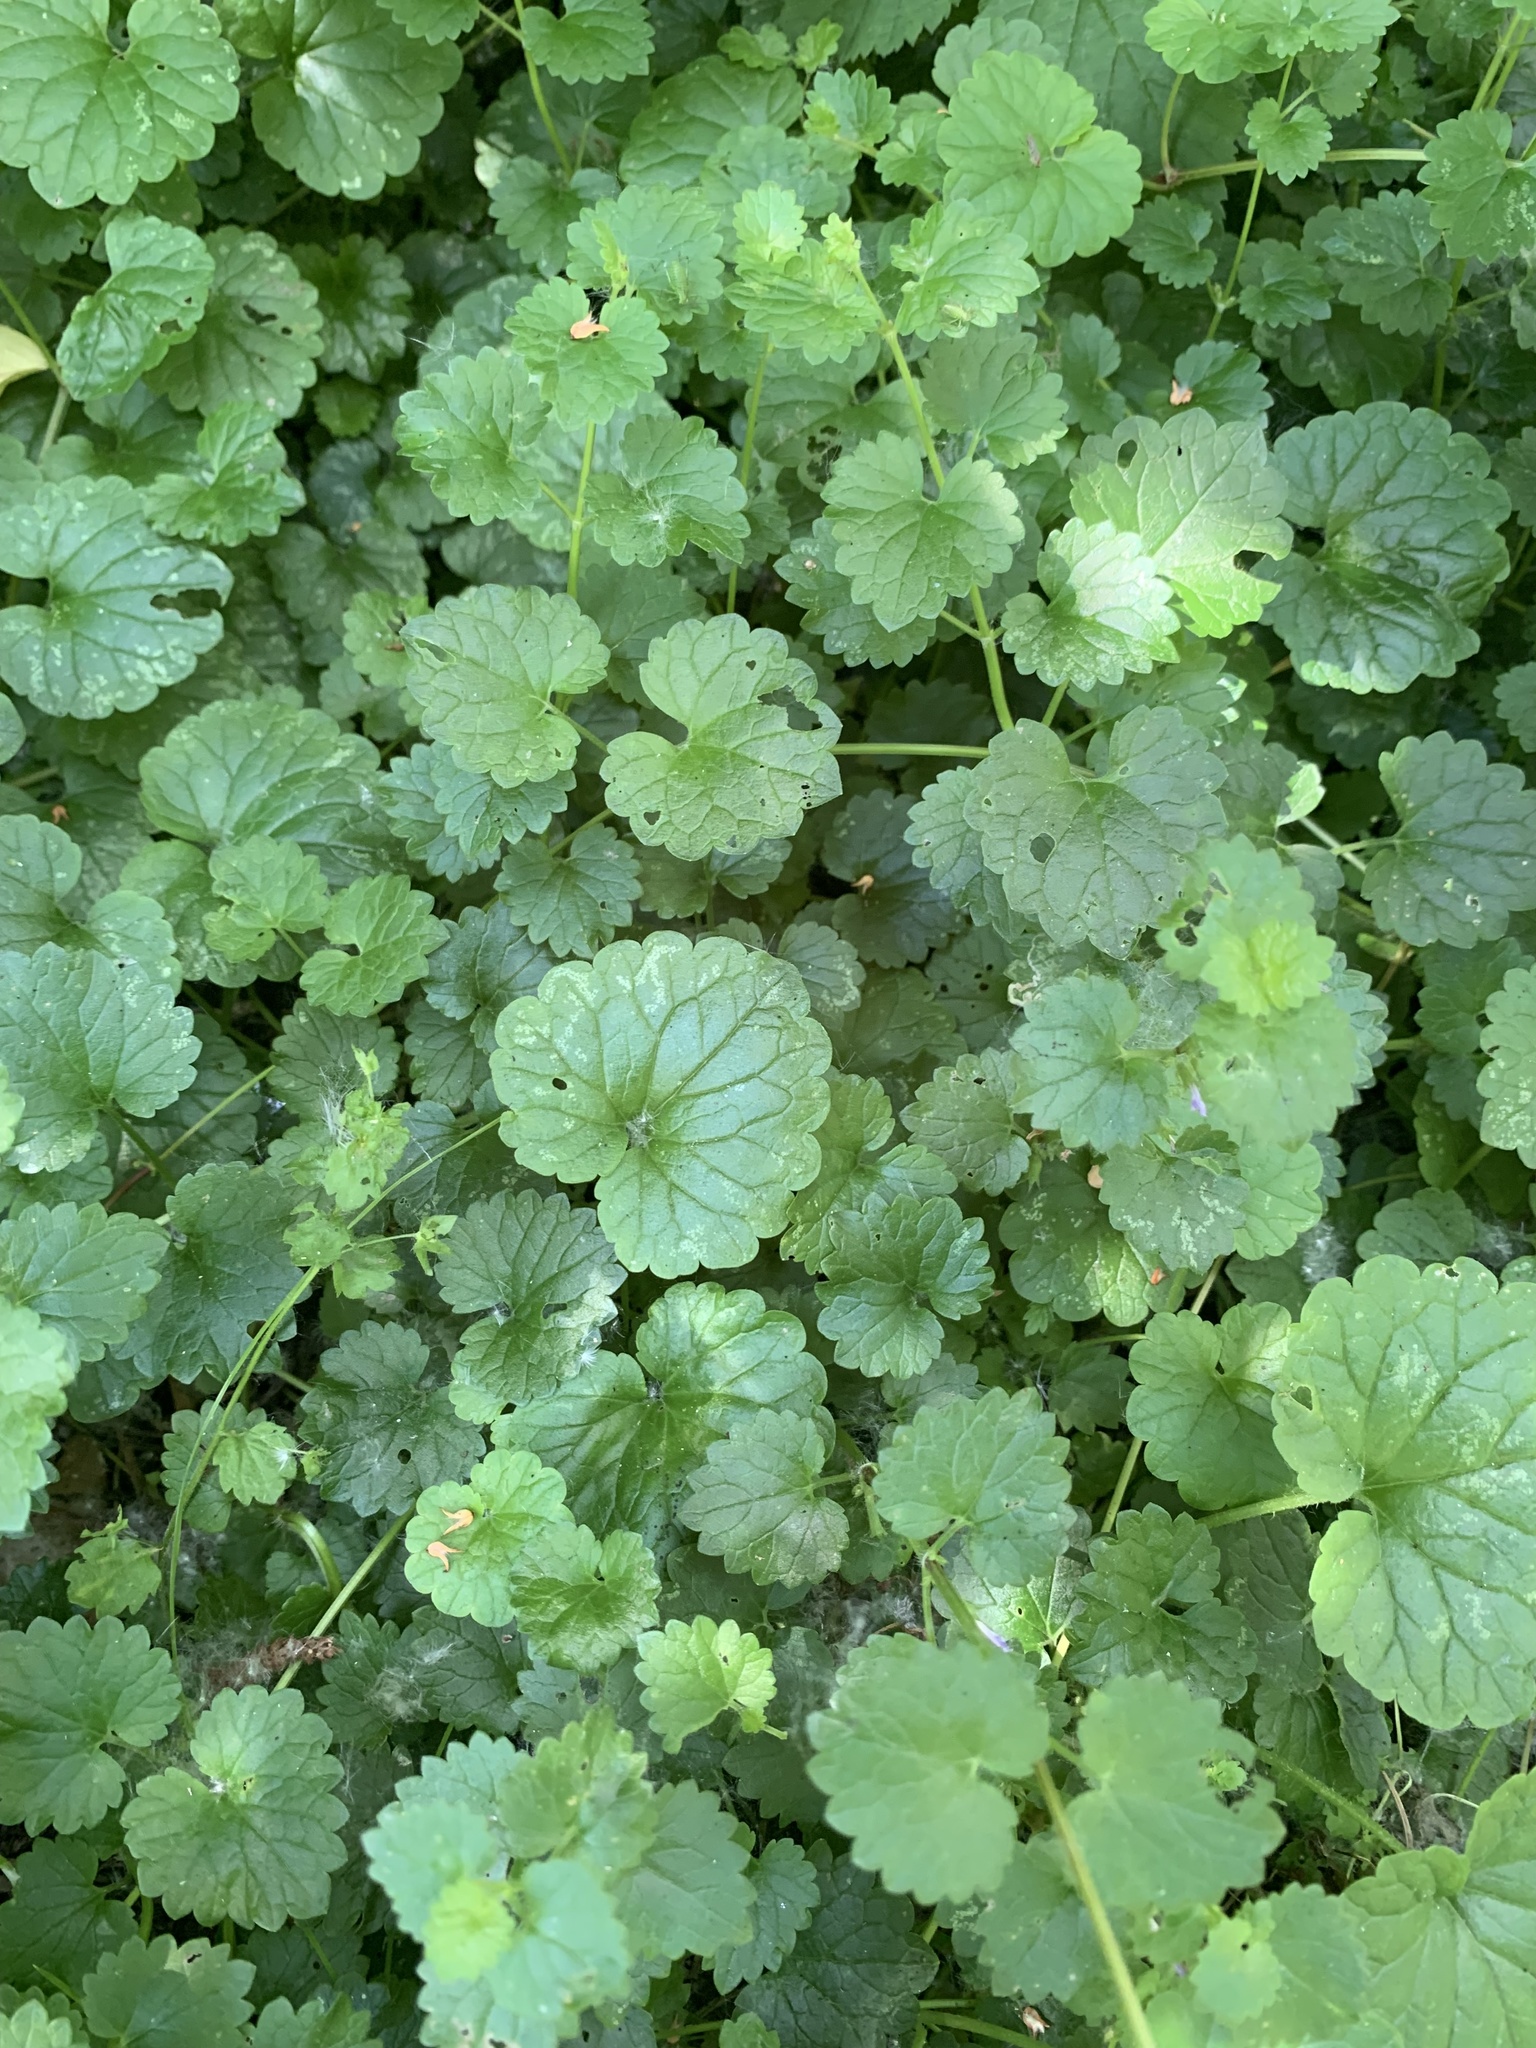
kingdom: Plantae
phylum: Tracheophyta
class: Magnoliopsida
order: Lamiales
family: Lamiaceae
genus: Glechoma
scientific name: Glechoma hederacea
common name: Ground ivy
